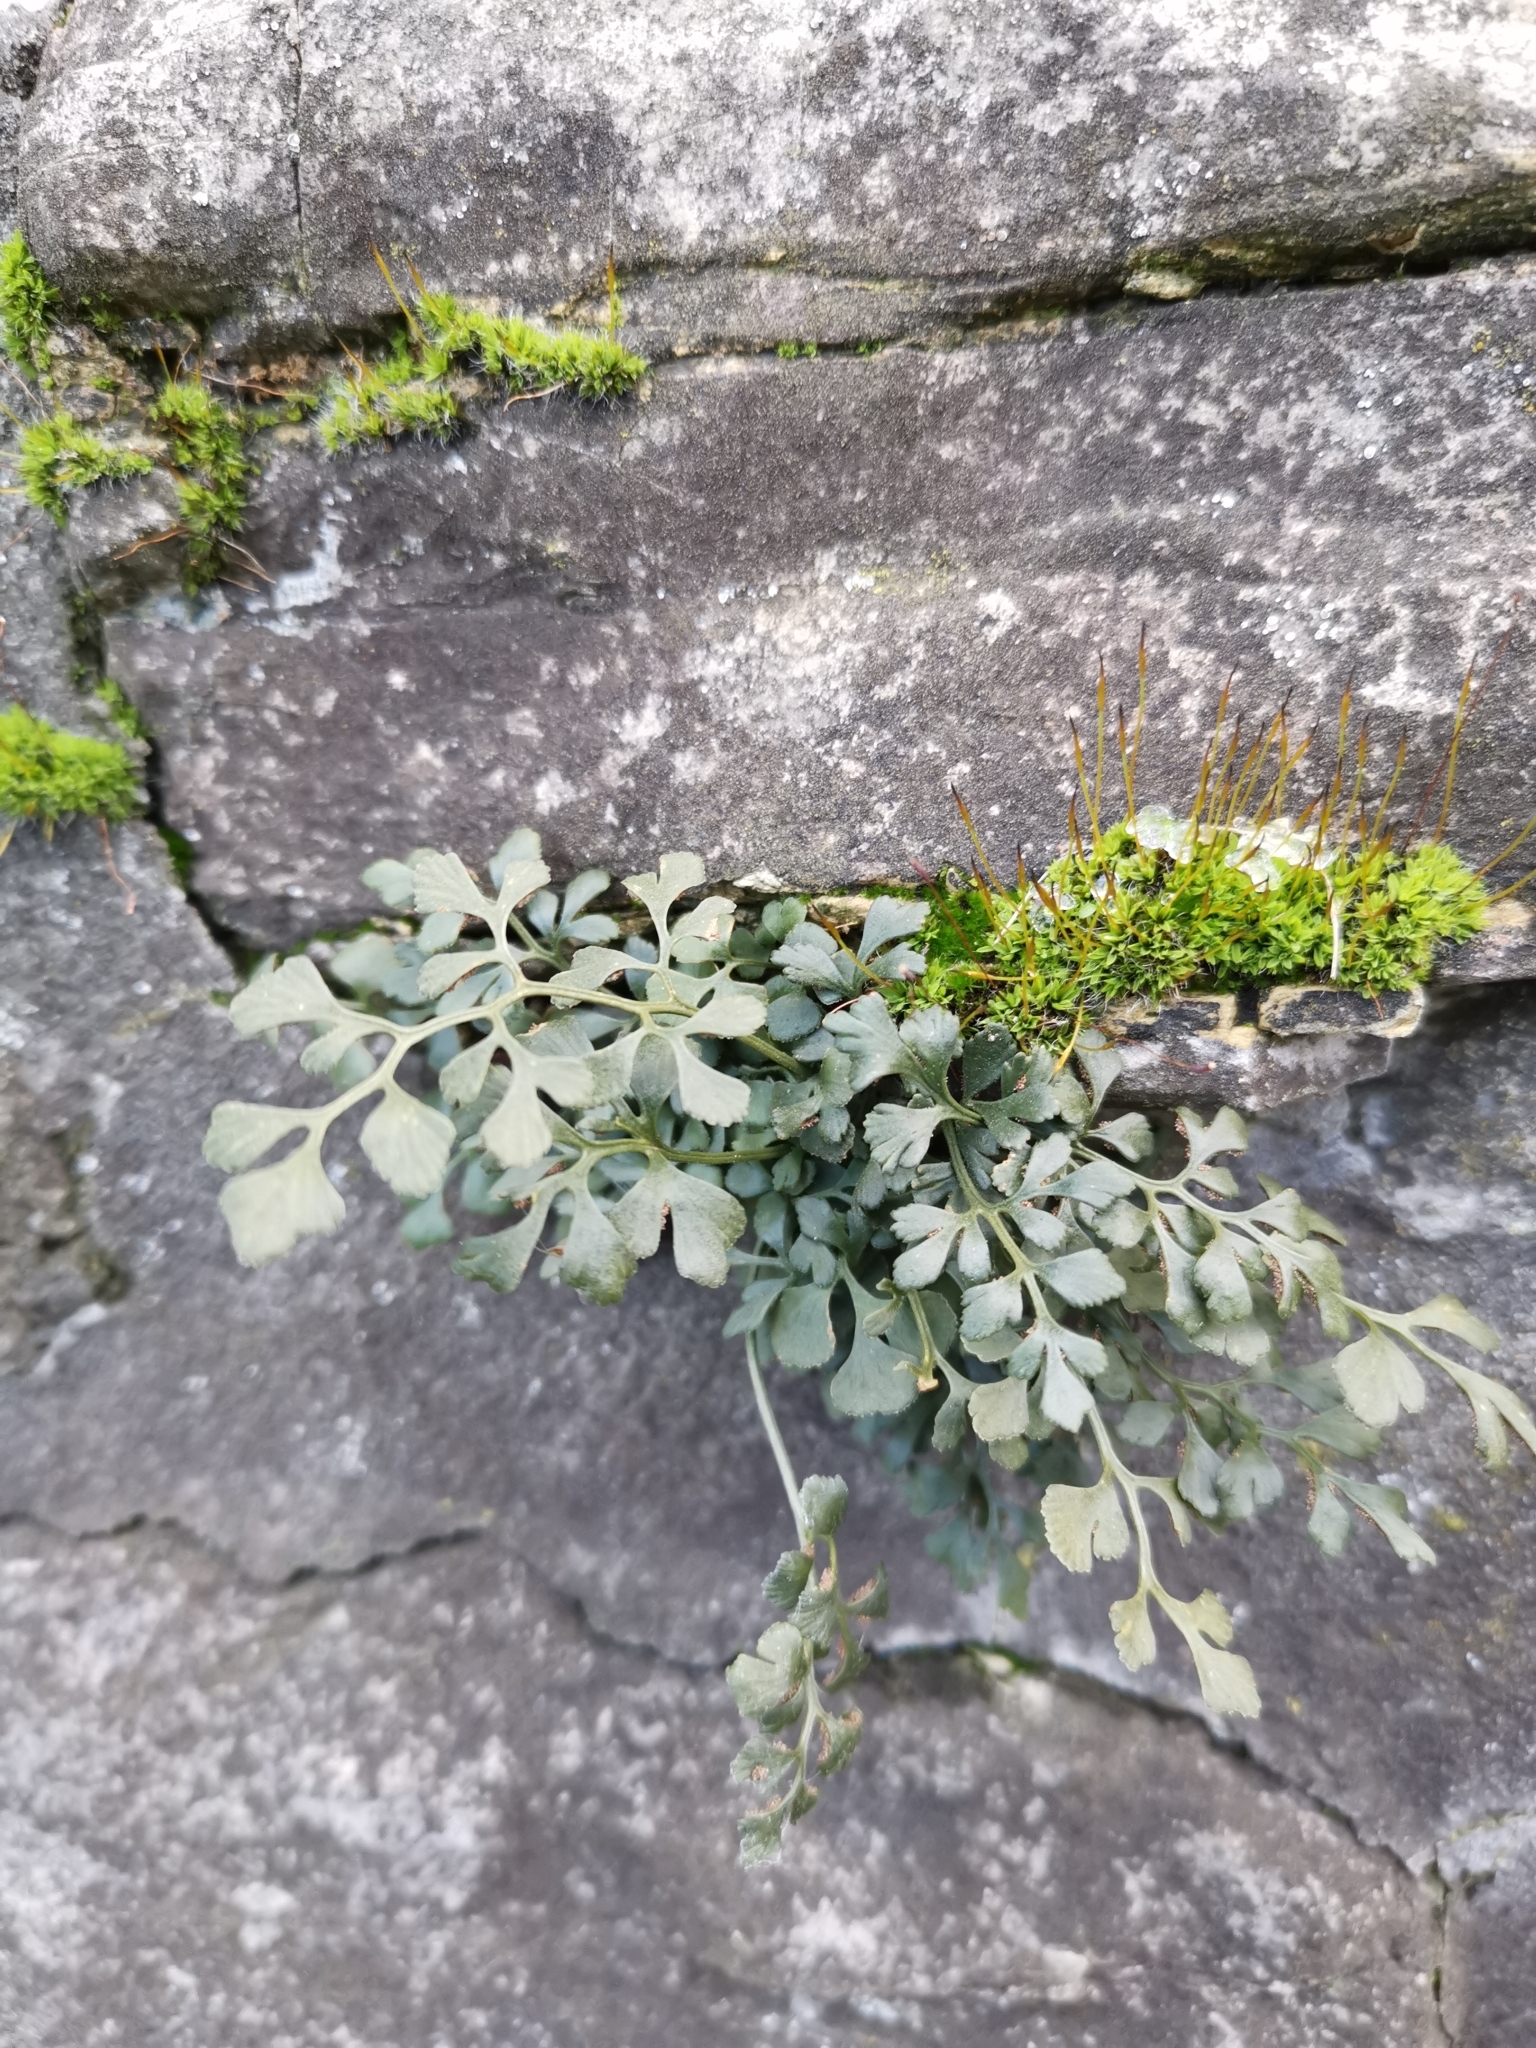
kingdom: Plantae
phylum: Tracheophyta
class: Polypodiopsida
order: Polypodiales
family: Aspleniaceae
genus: Asplenium
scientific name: Asplenium ruta-muraria
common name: Wall-rue
